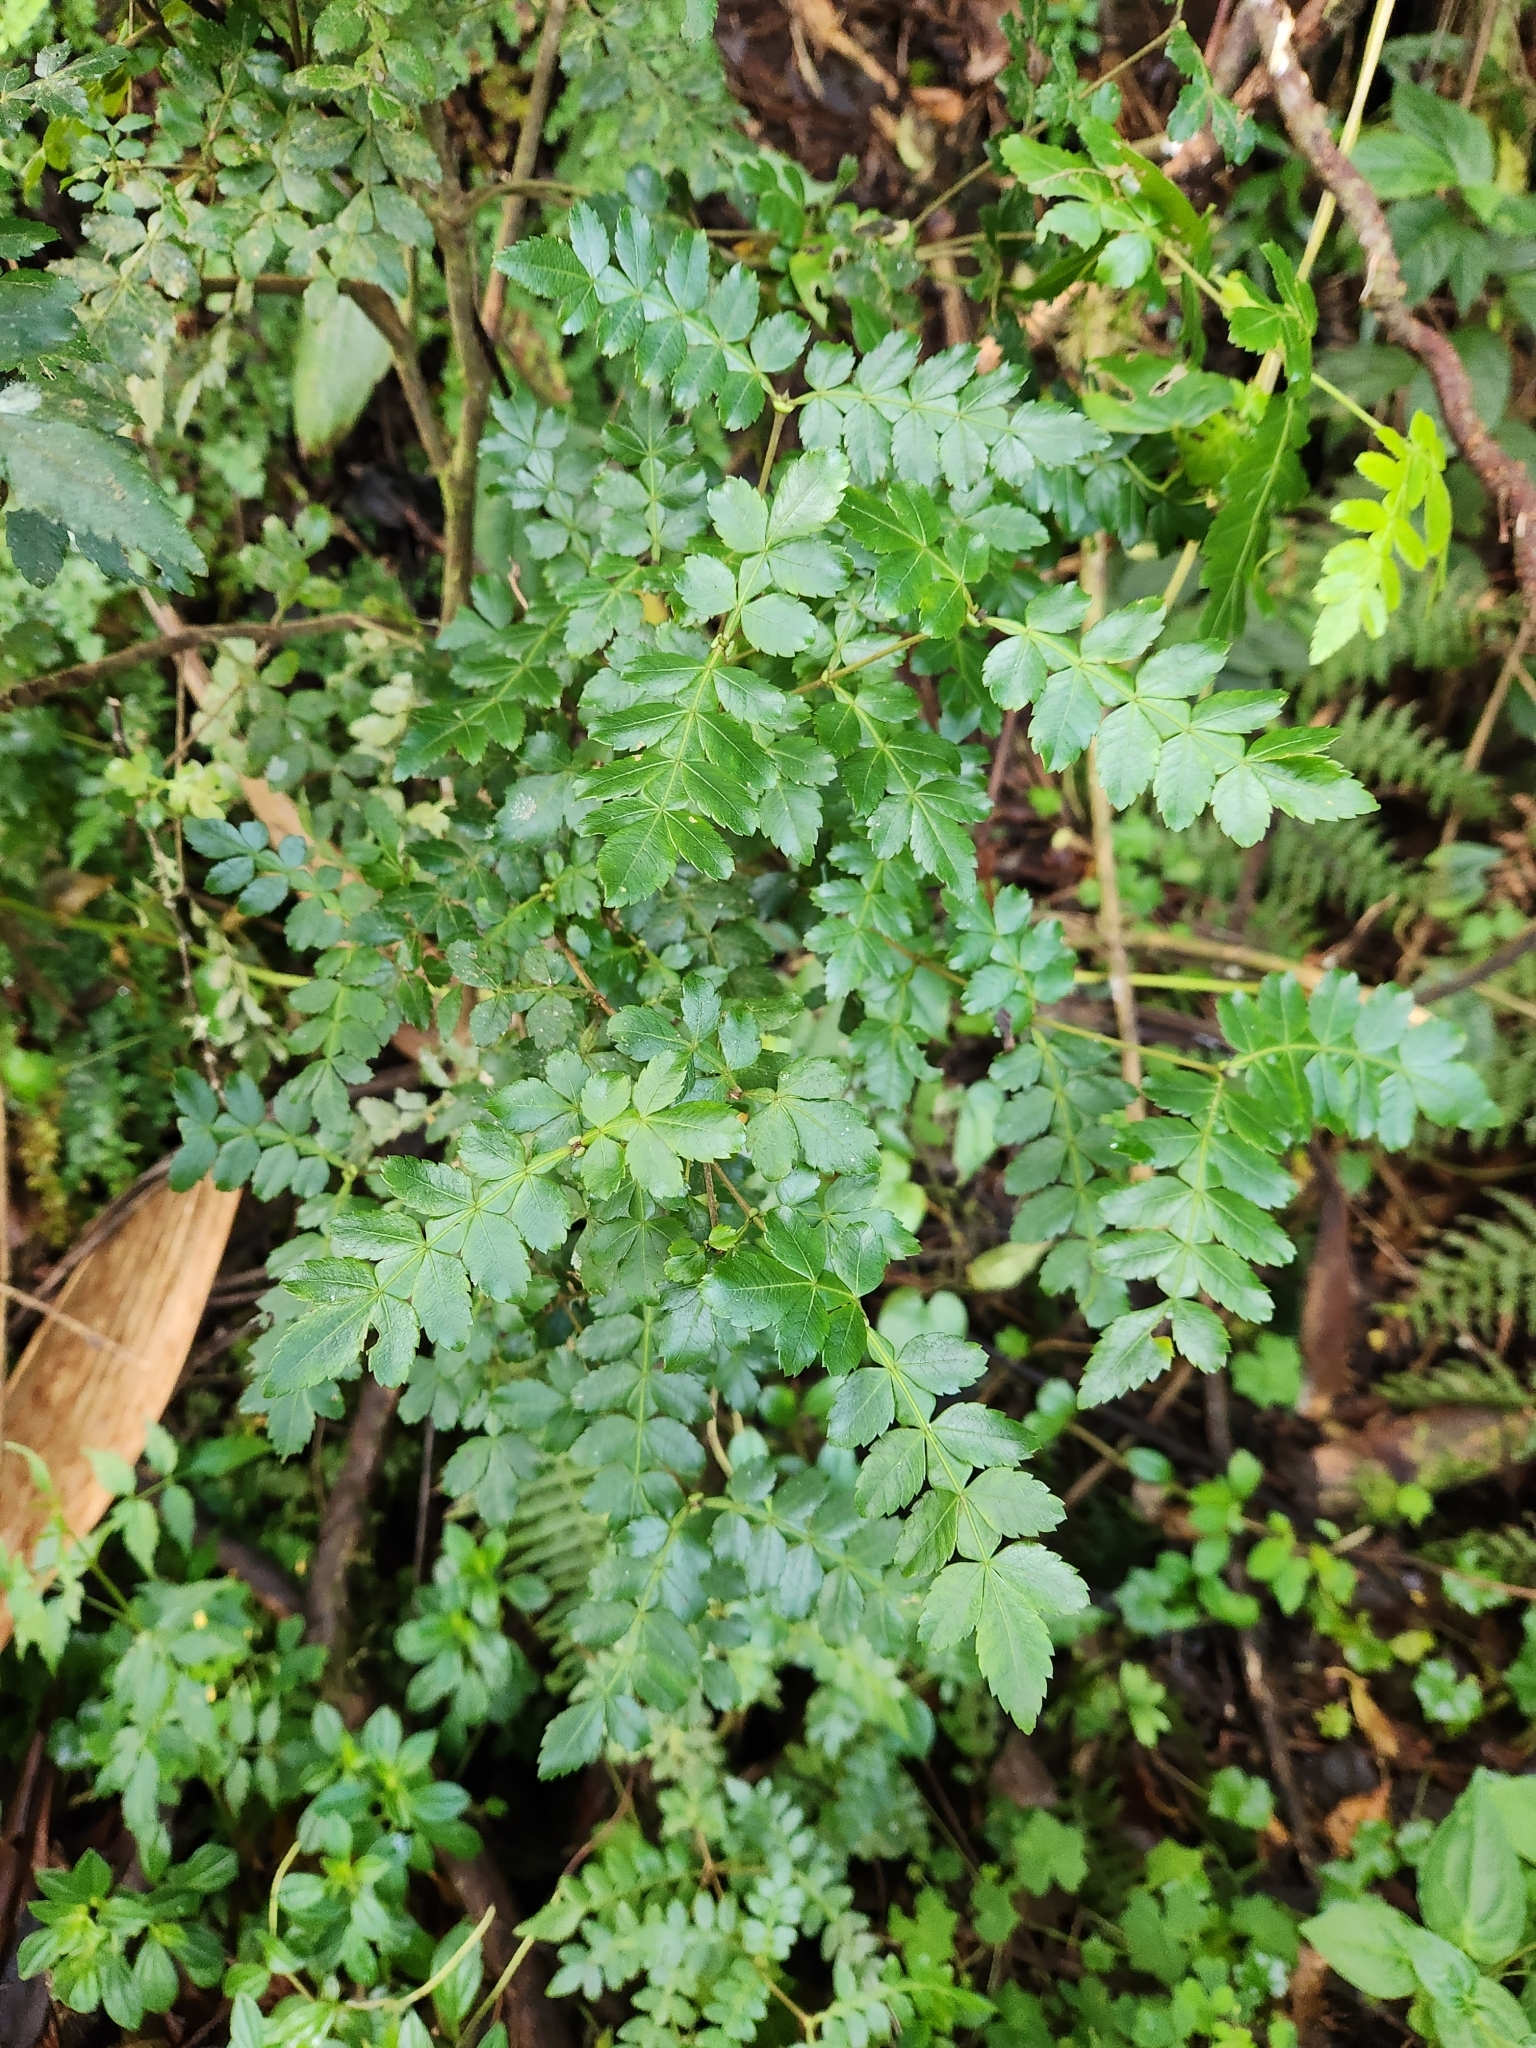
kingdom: Plantae
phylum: Tracheophyta
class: Magnoliopsida
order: Oxalidales
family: Cunoniaceae
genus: Weinmannia
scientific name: Weinmannia pinnata
